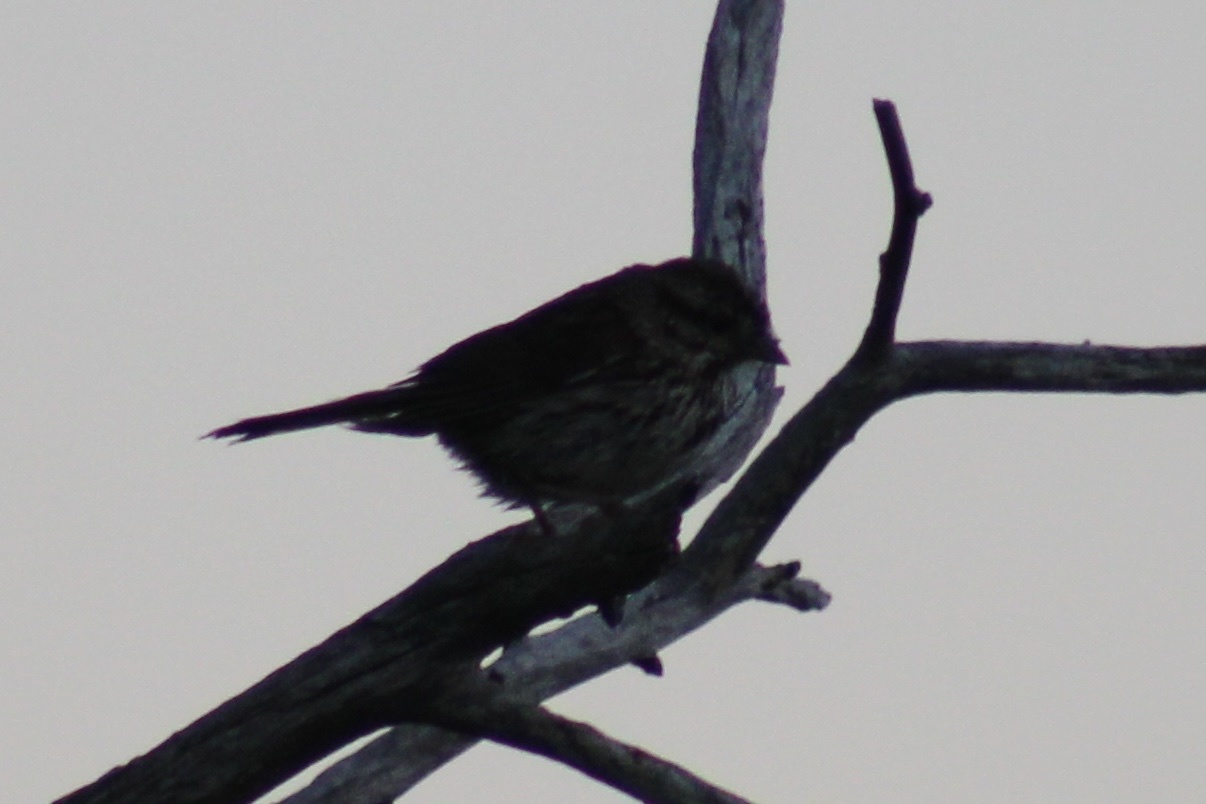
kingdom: Animalia
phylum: Chordata
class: Aves
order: Passeriformes
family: Passerellidae
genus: Melospiza
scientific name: Melospiza melodia
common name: Song sparrow
